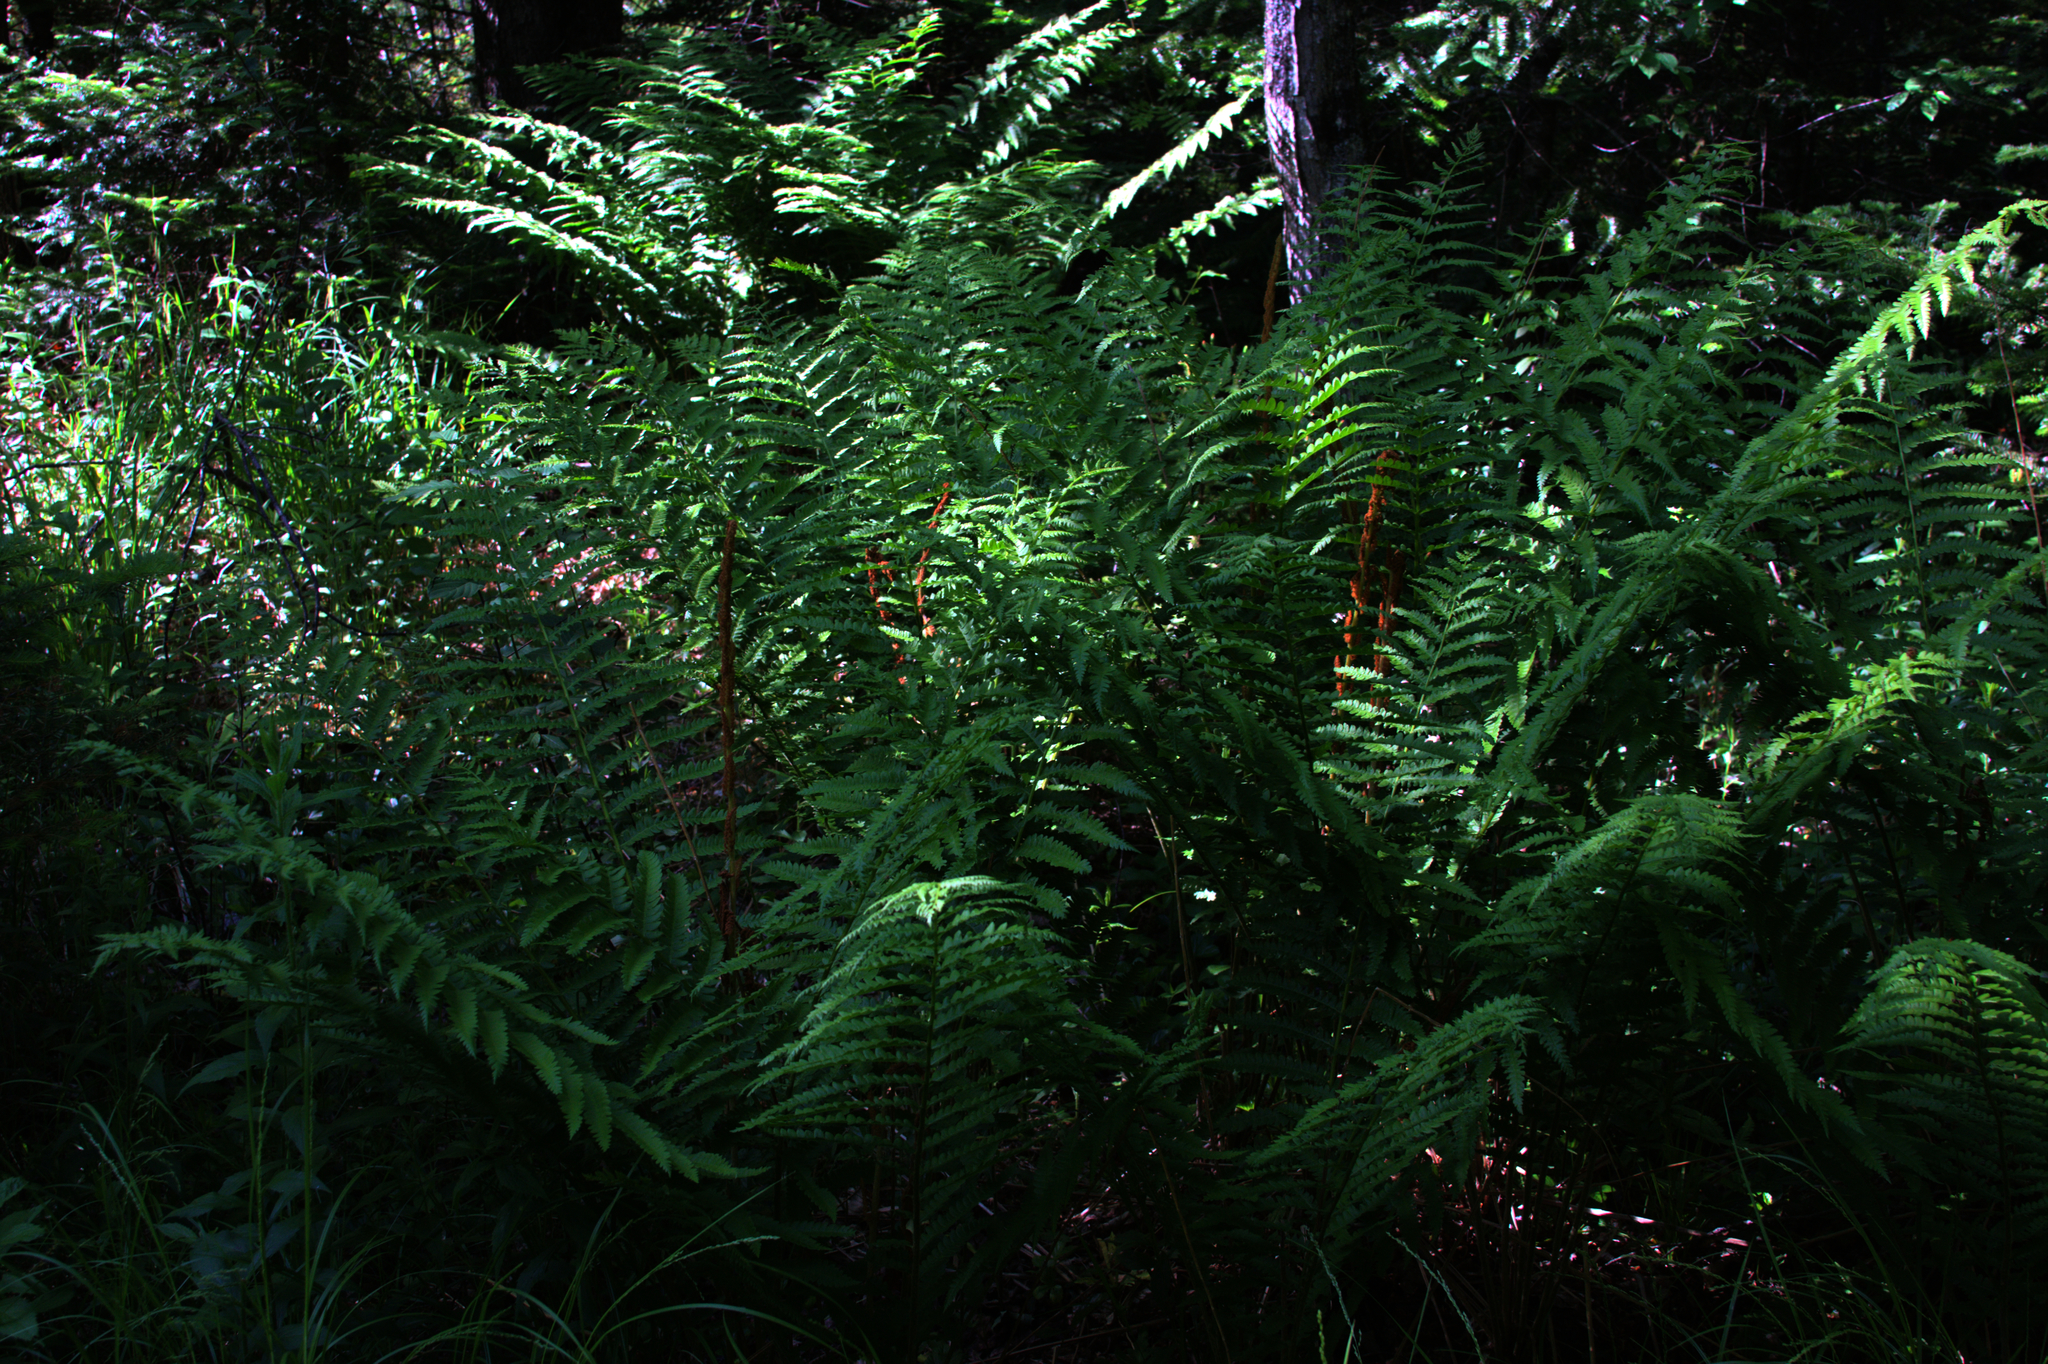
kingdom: Plantae
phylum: Tracheophyta
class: Polypodiopsida
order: Osmundales
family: Osmundaceae
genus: Osmundastrum
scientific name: Osmundastrum cinnamomeum
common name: Cinnamon fern
